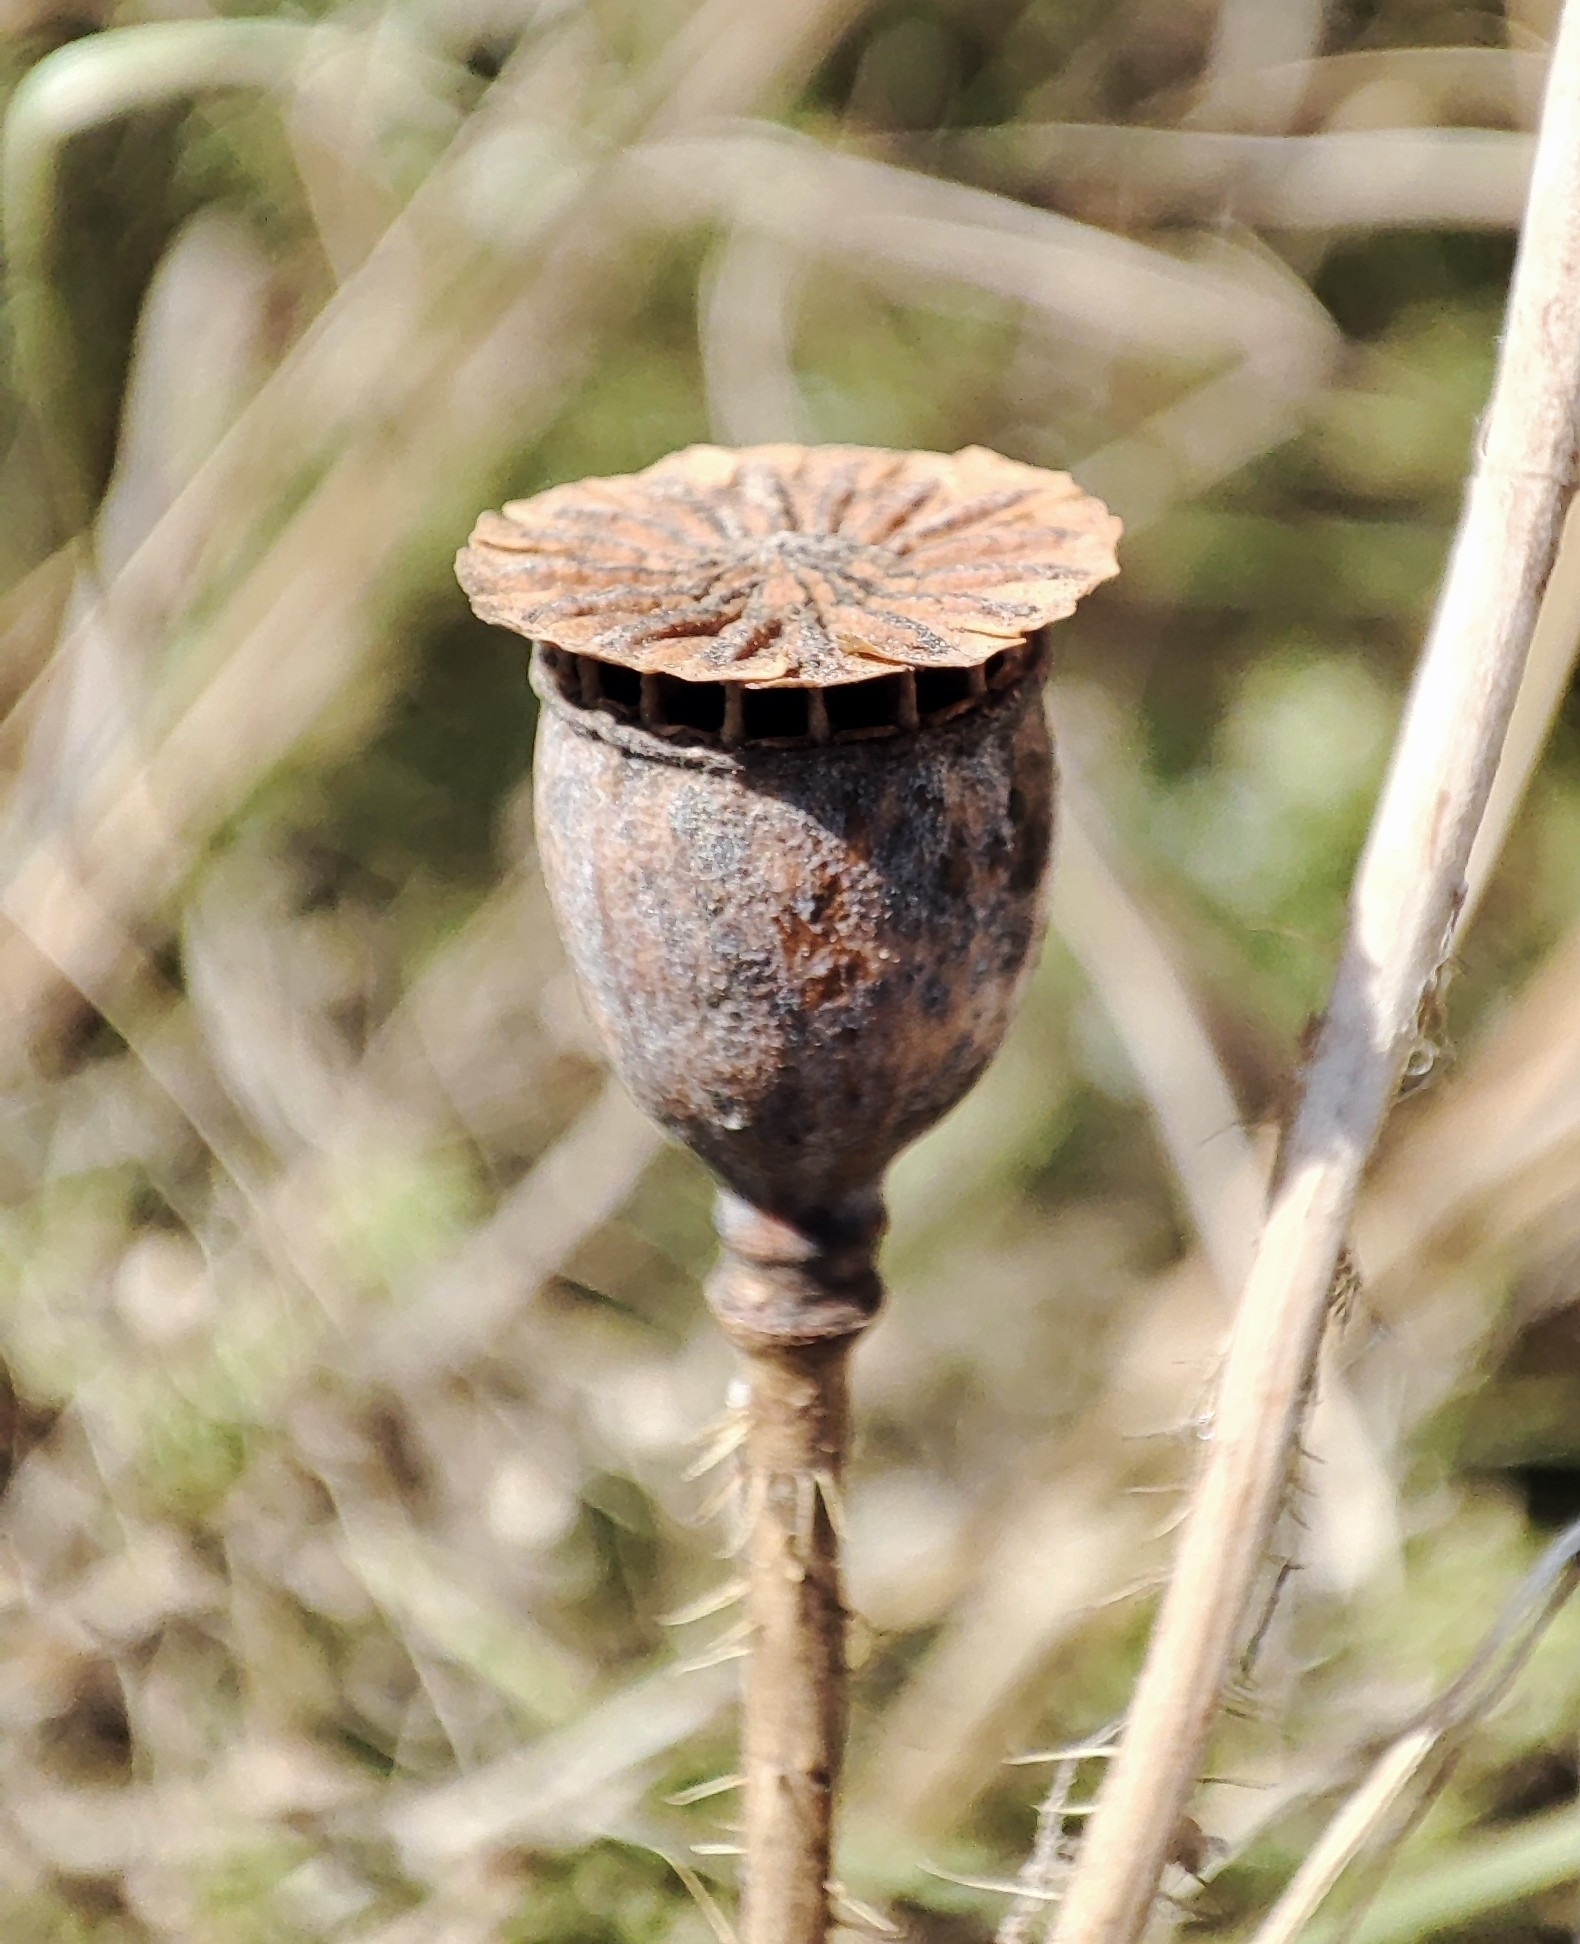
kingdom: Plantae
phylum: Tracheophyta
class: Magnoliopsida
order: Ranunculales
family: Papaveraceae
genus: Papaver
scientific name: Papaver rhoeas
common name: Corn poppy
